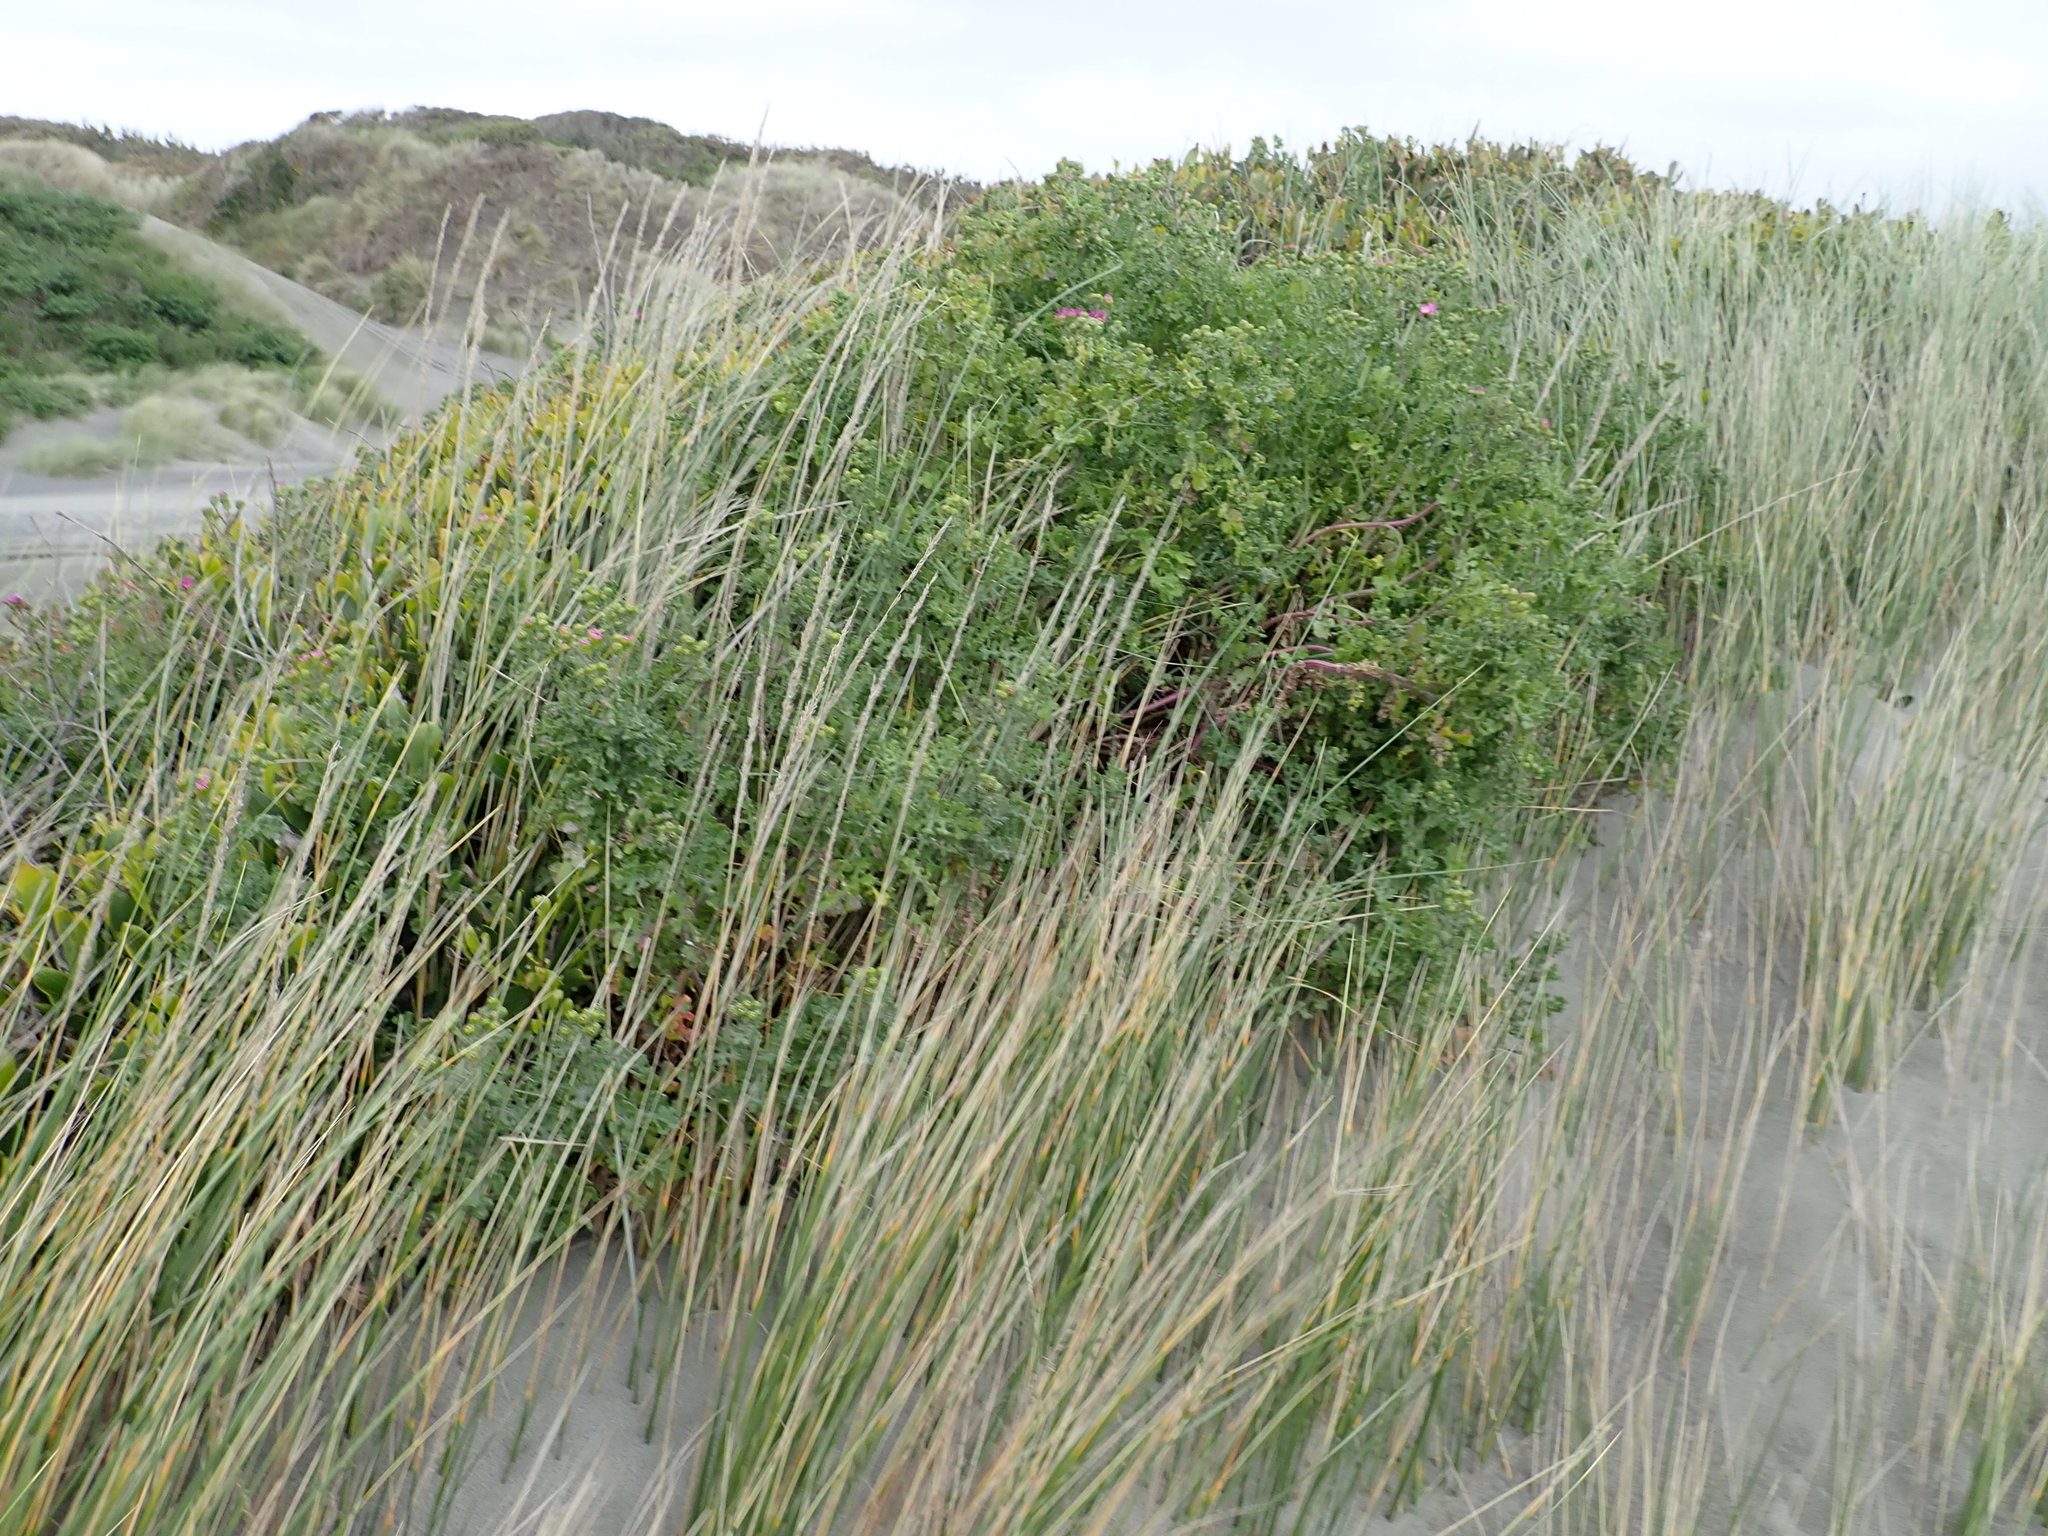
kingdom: Plantae
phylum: Tracheophyta
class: Magnoliopsida
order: Asterales
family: Asteraceae
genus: Senecio
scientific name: Senecio elegans
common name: Purple groundsel
